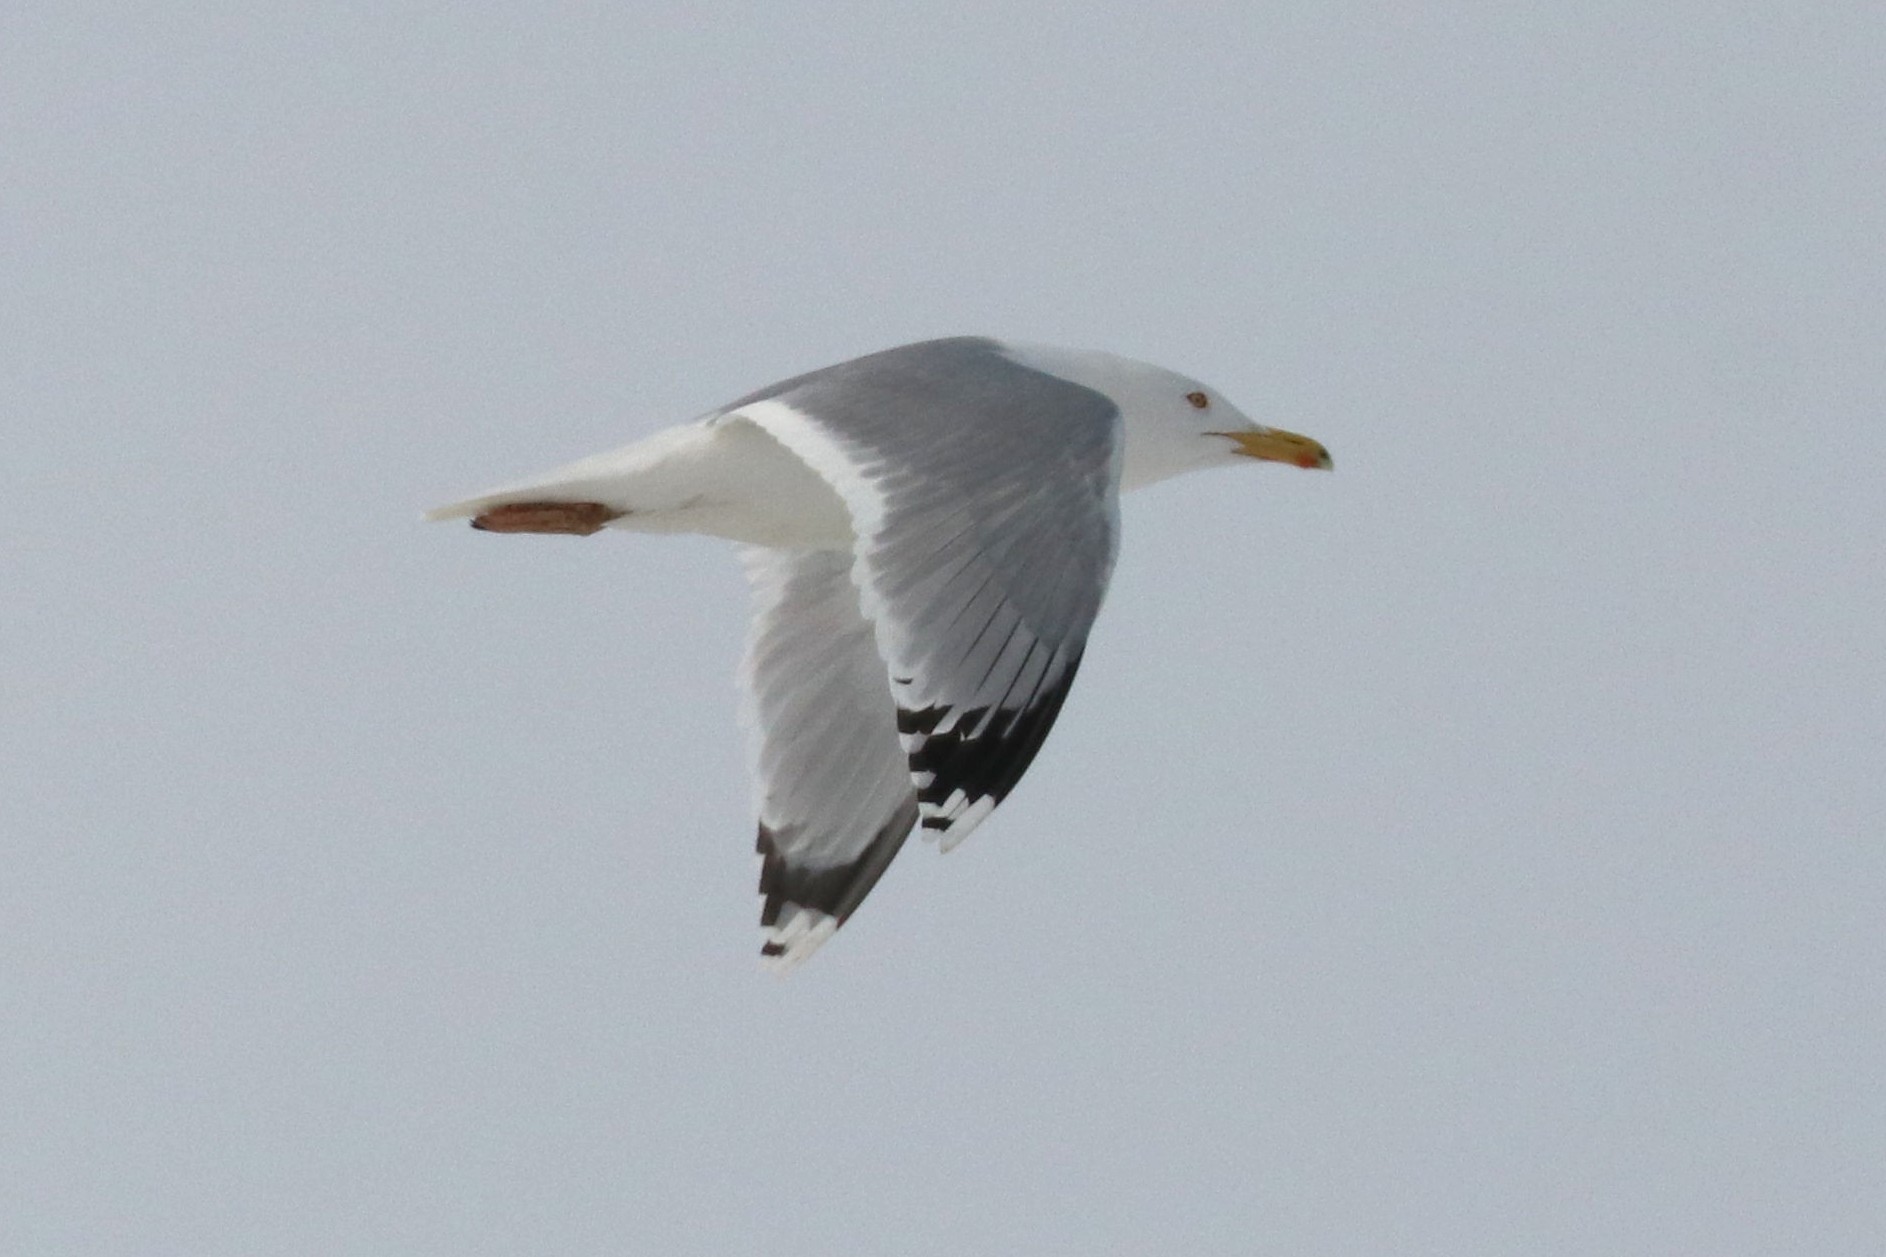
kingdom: Animalia
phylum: Chordata
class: Aves
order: Charadriiformes
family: Laridae
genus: Larus
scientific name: Larus argentatus
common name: Herring gull
